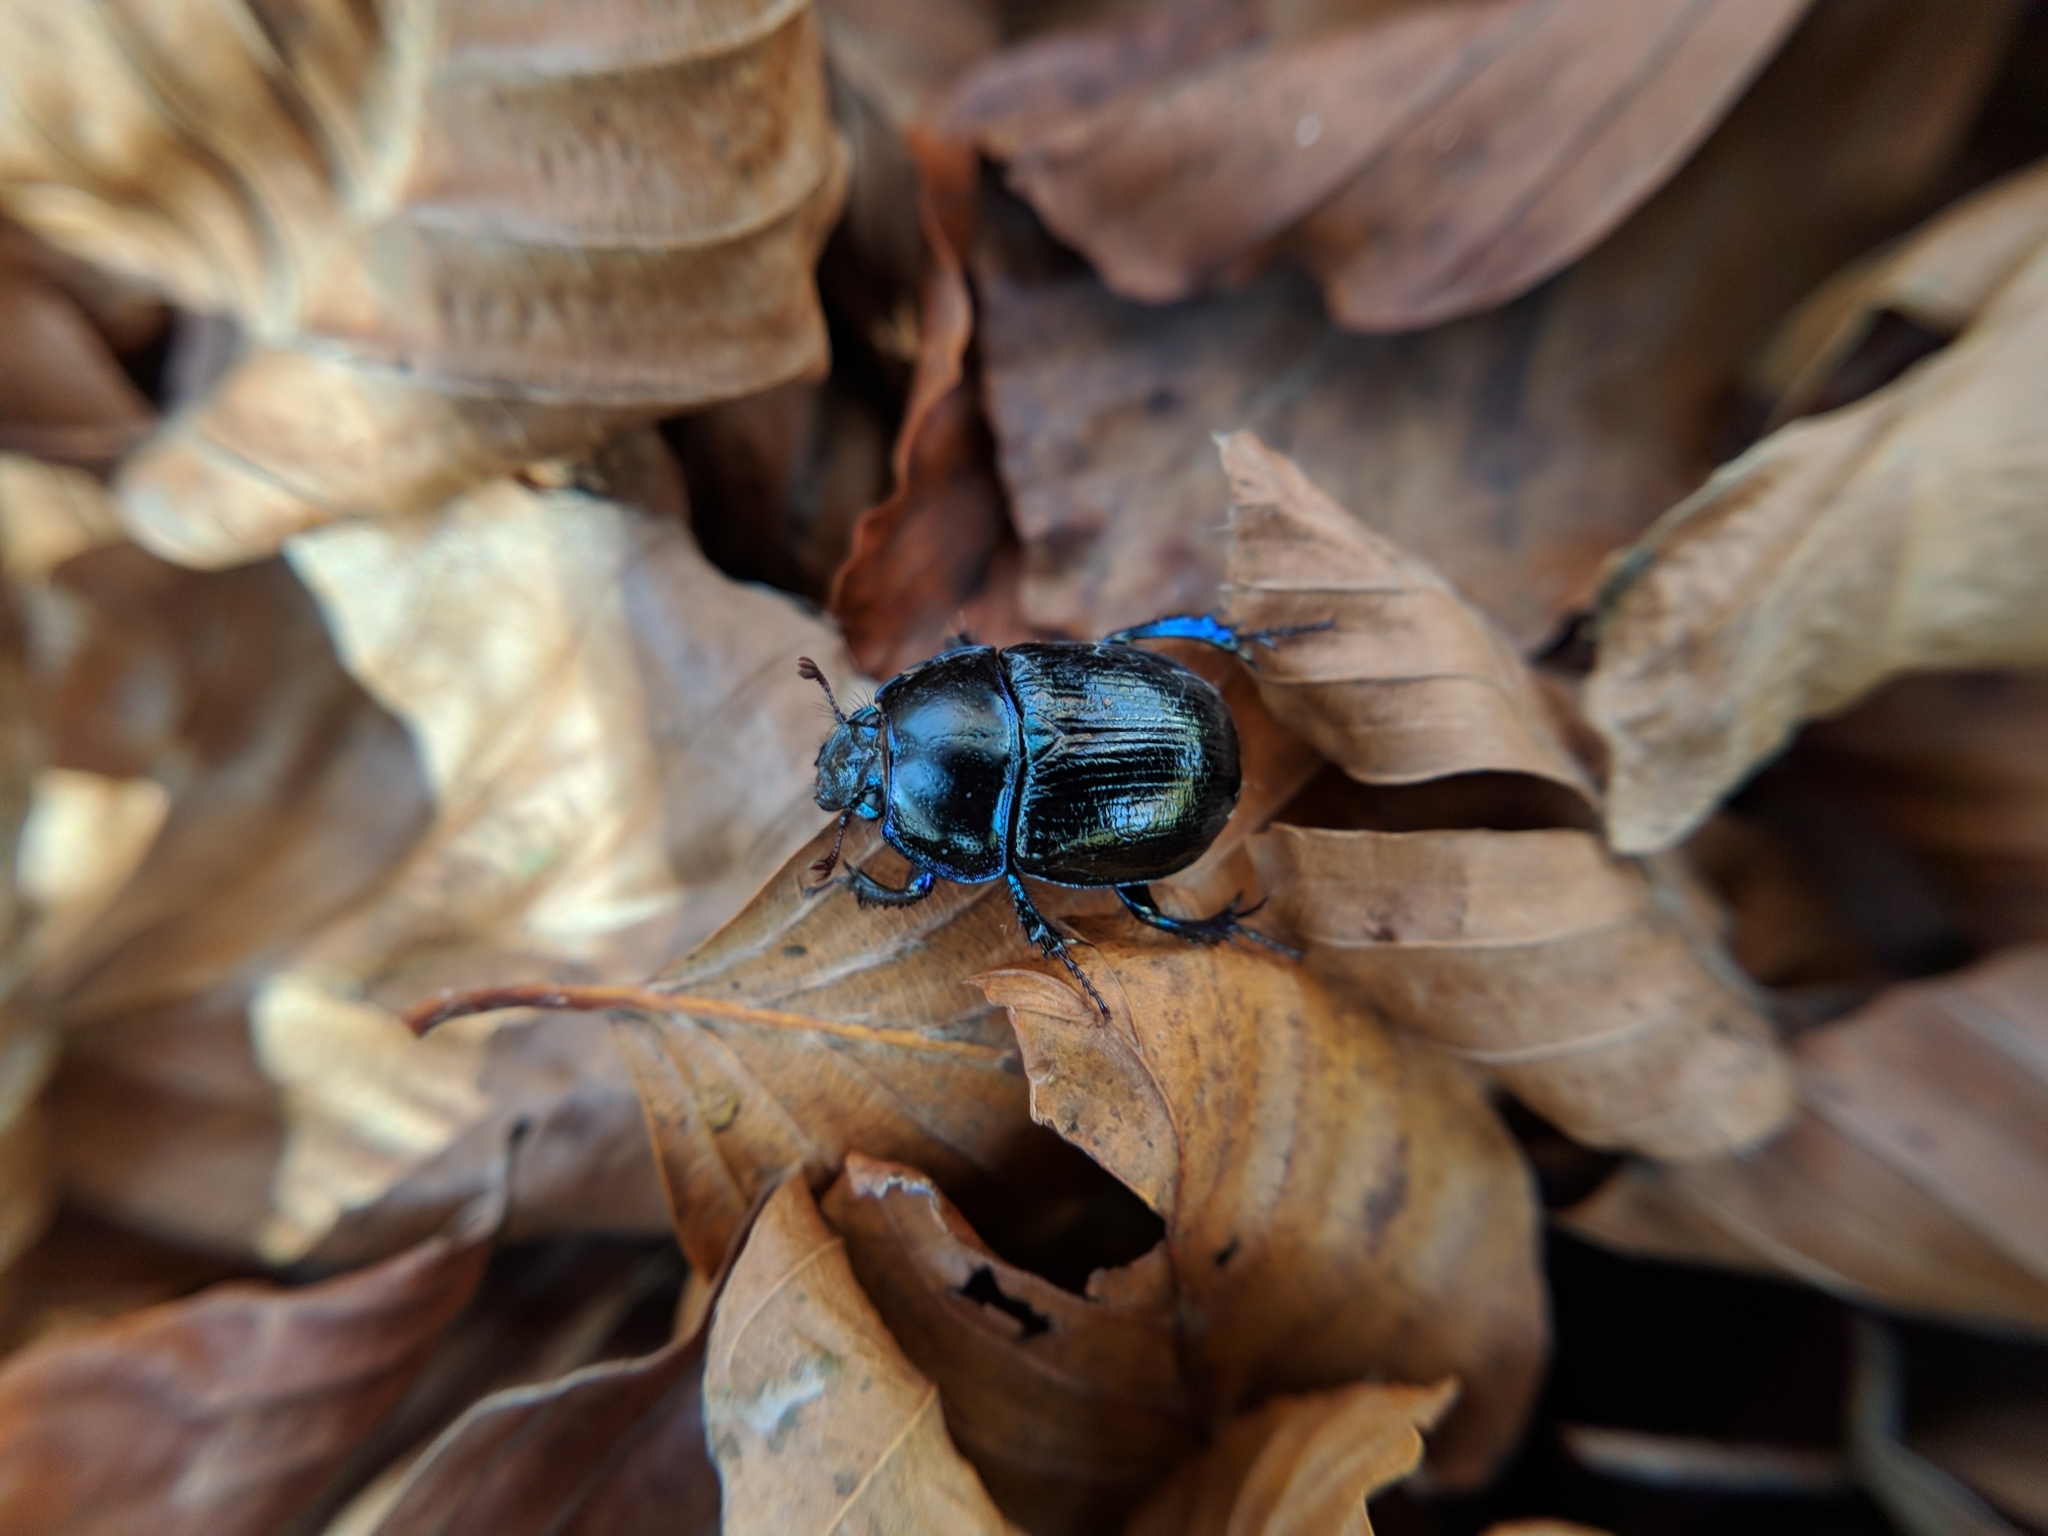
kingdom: Animalia
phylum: Arthropoda
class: Insecta
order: Coleoptera
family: Geotrupidae
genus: Anoplotrupes
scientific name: Anoplotrupes stercorosus
